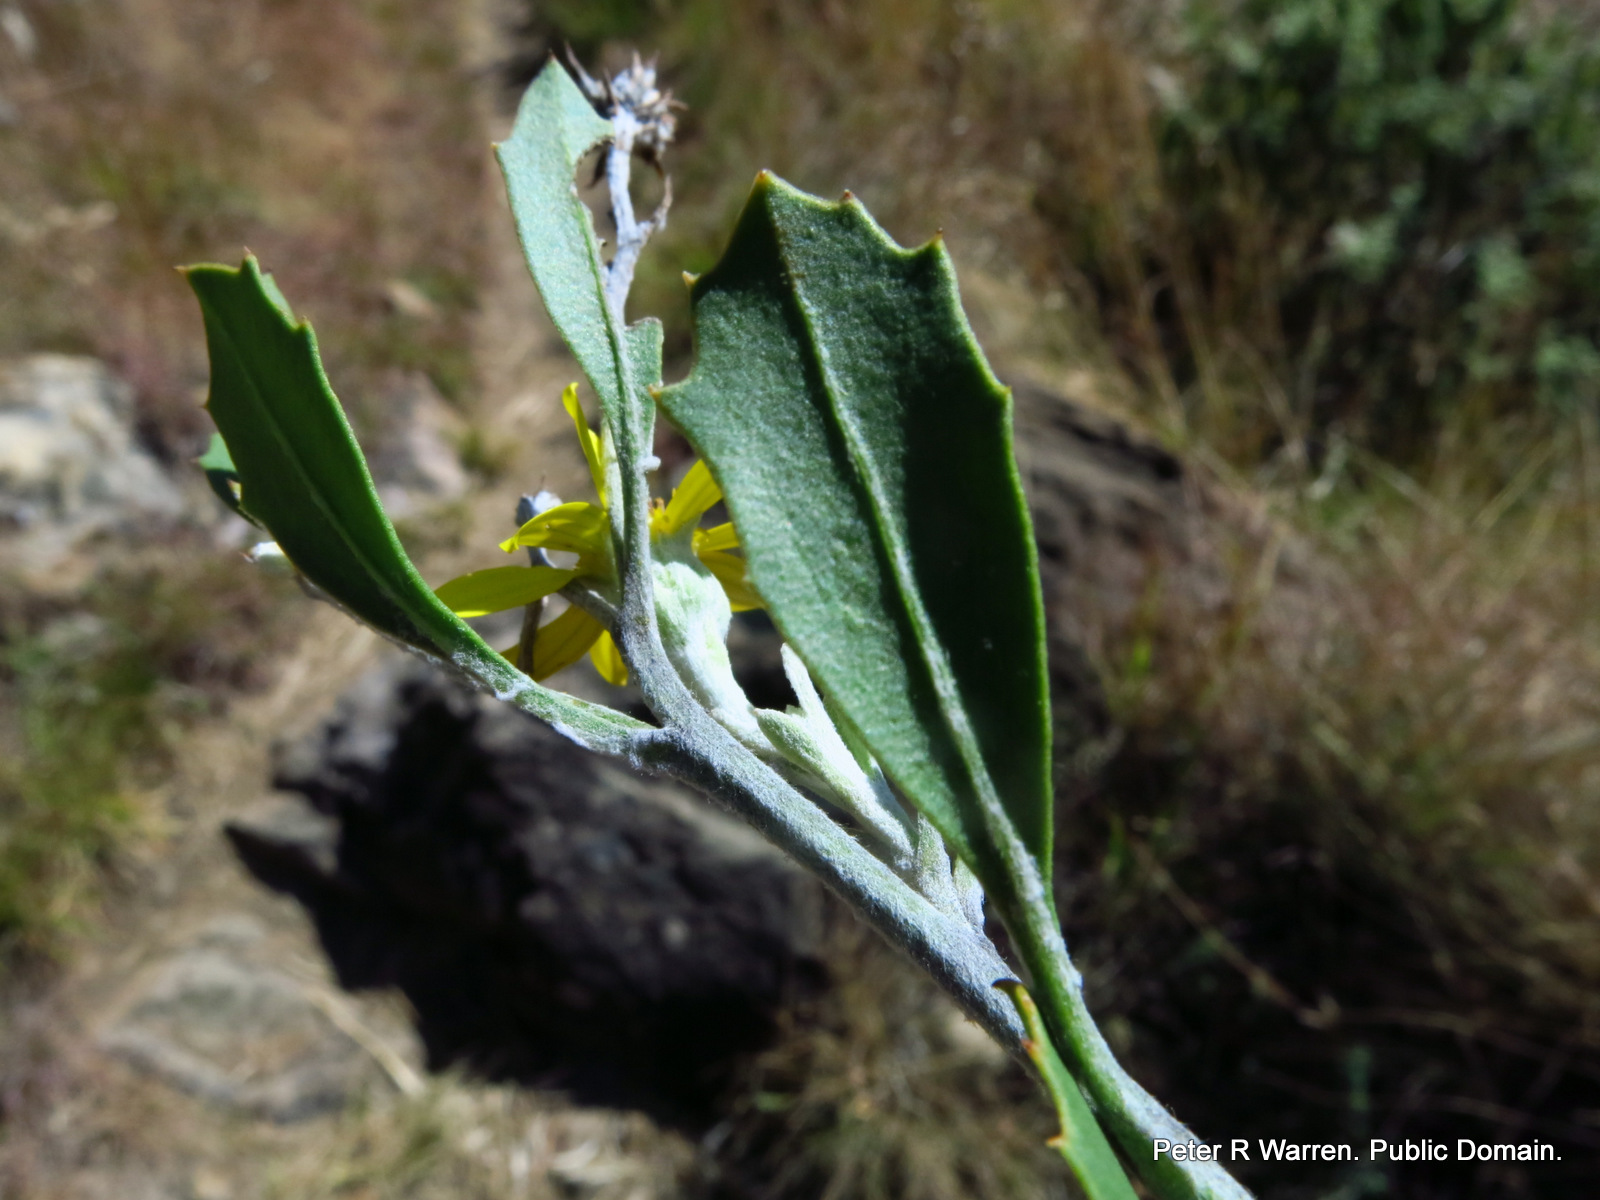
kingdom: Plantae
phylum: Tracheophyta
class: Magnoliopsida
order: Asterales
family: Asteraceae
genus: Osteospermum
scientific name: Osteospermum moniliferum
